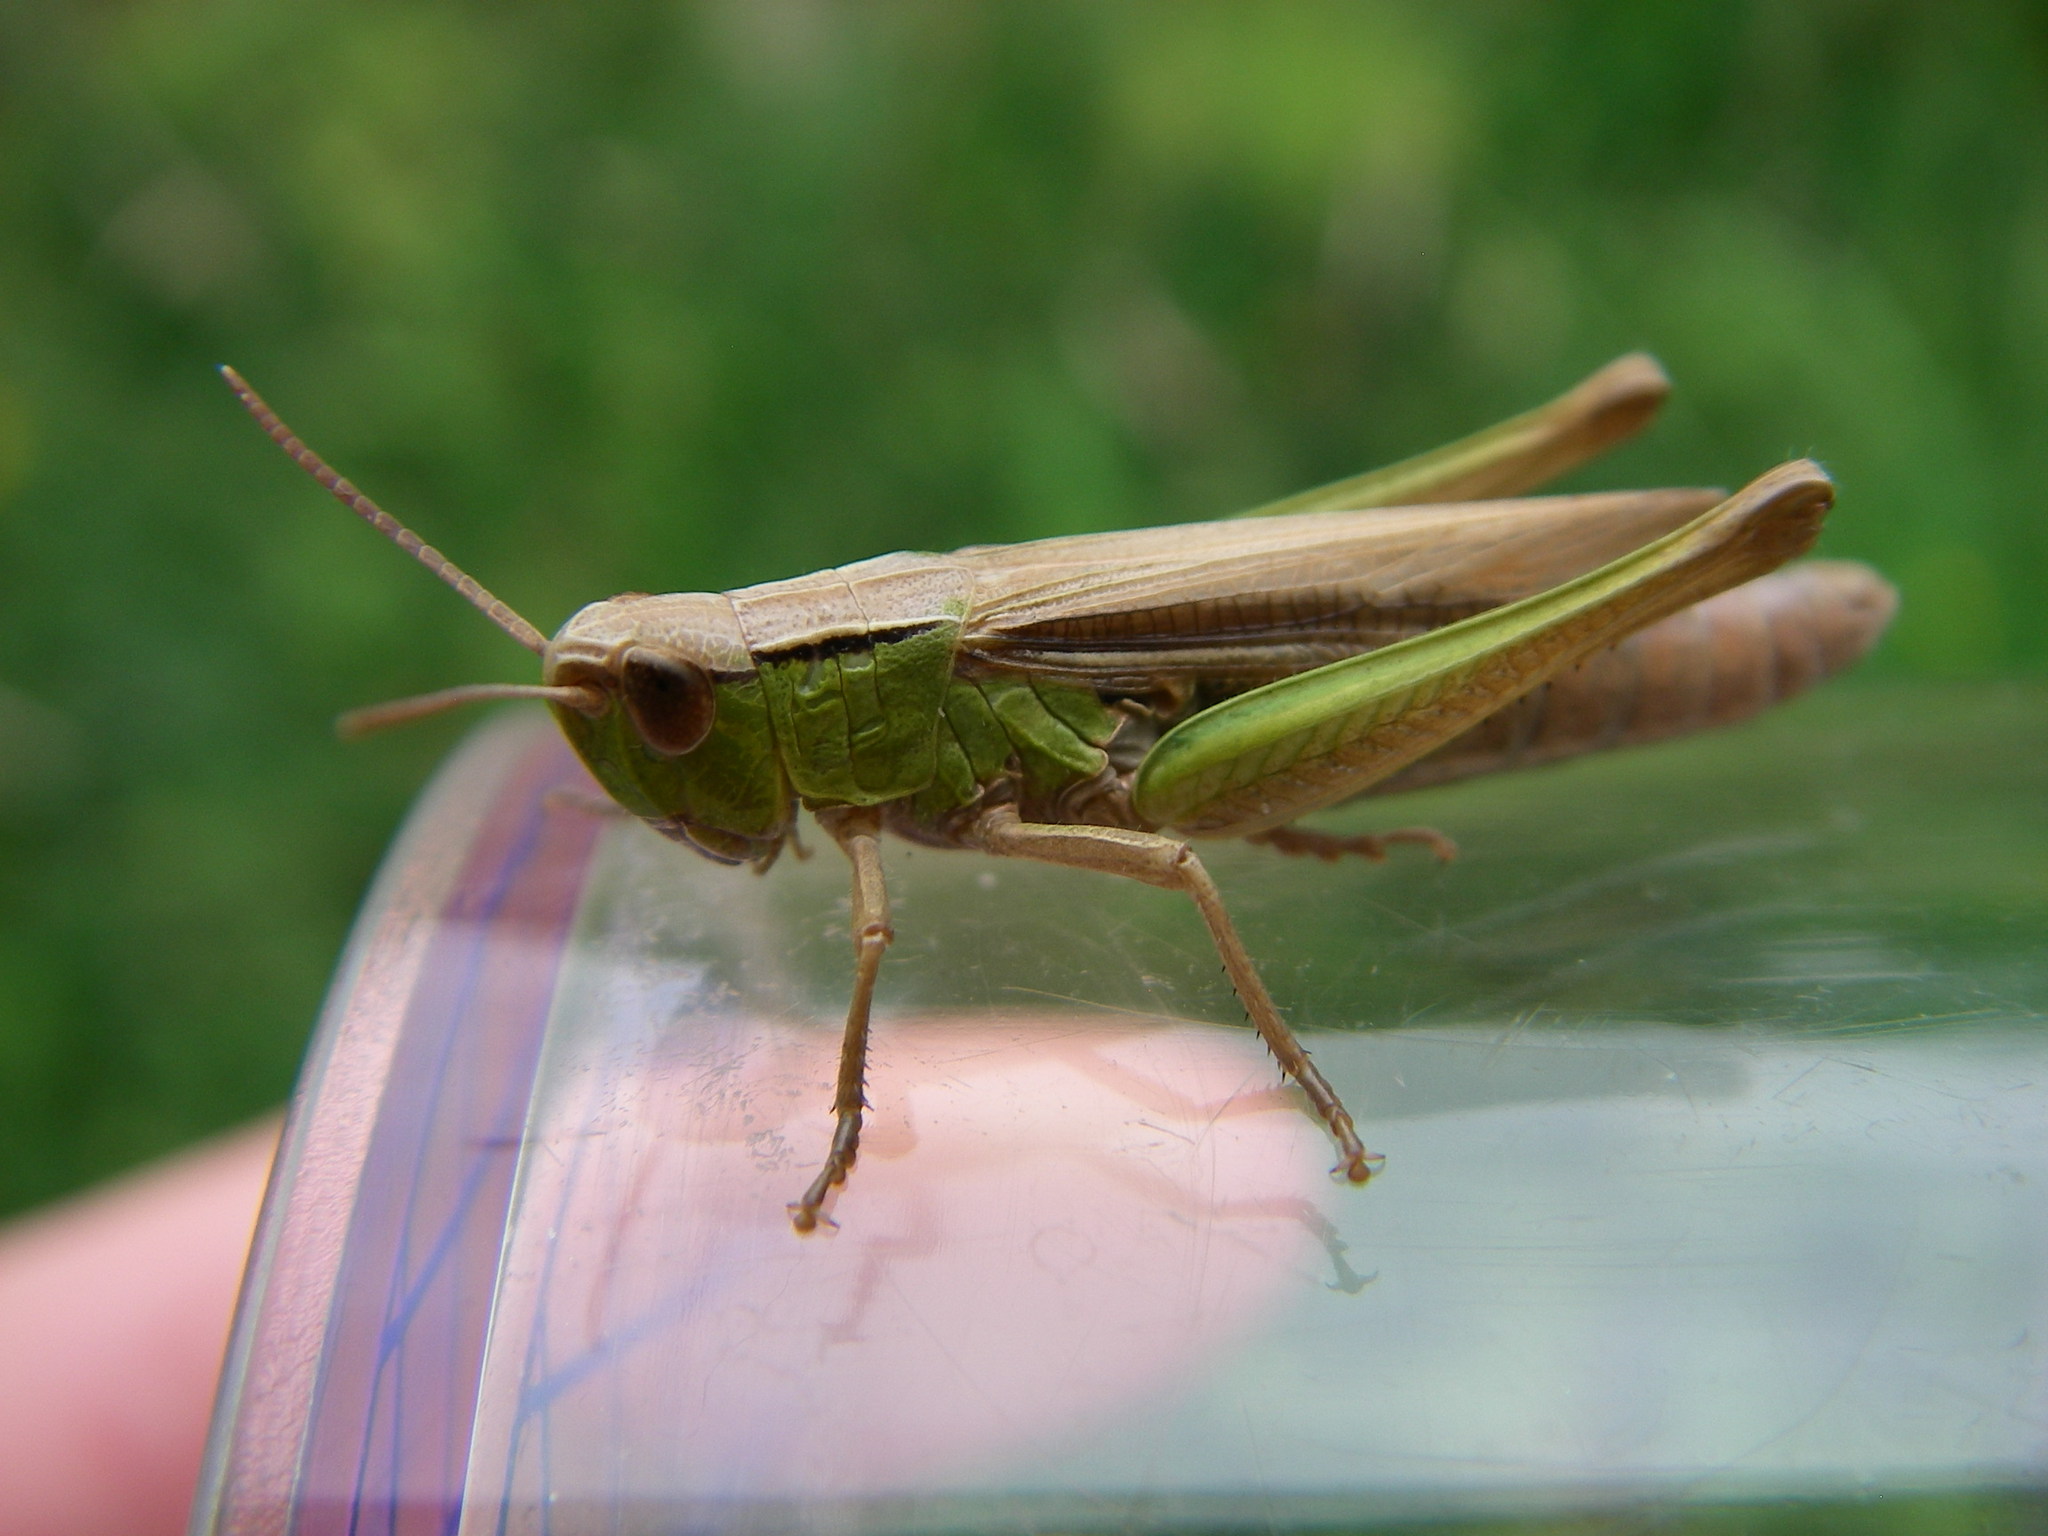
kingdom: Animalia
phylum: Arthropoda
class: Insecta
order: Orthoptera
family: Acrididae
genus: Chorthippus
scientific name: Chorthippus albomarginatus
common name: Lesser marsh grasshopper
